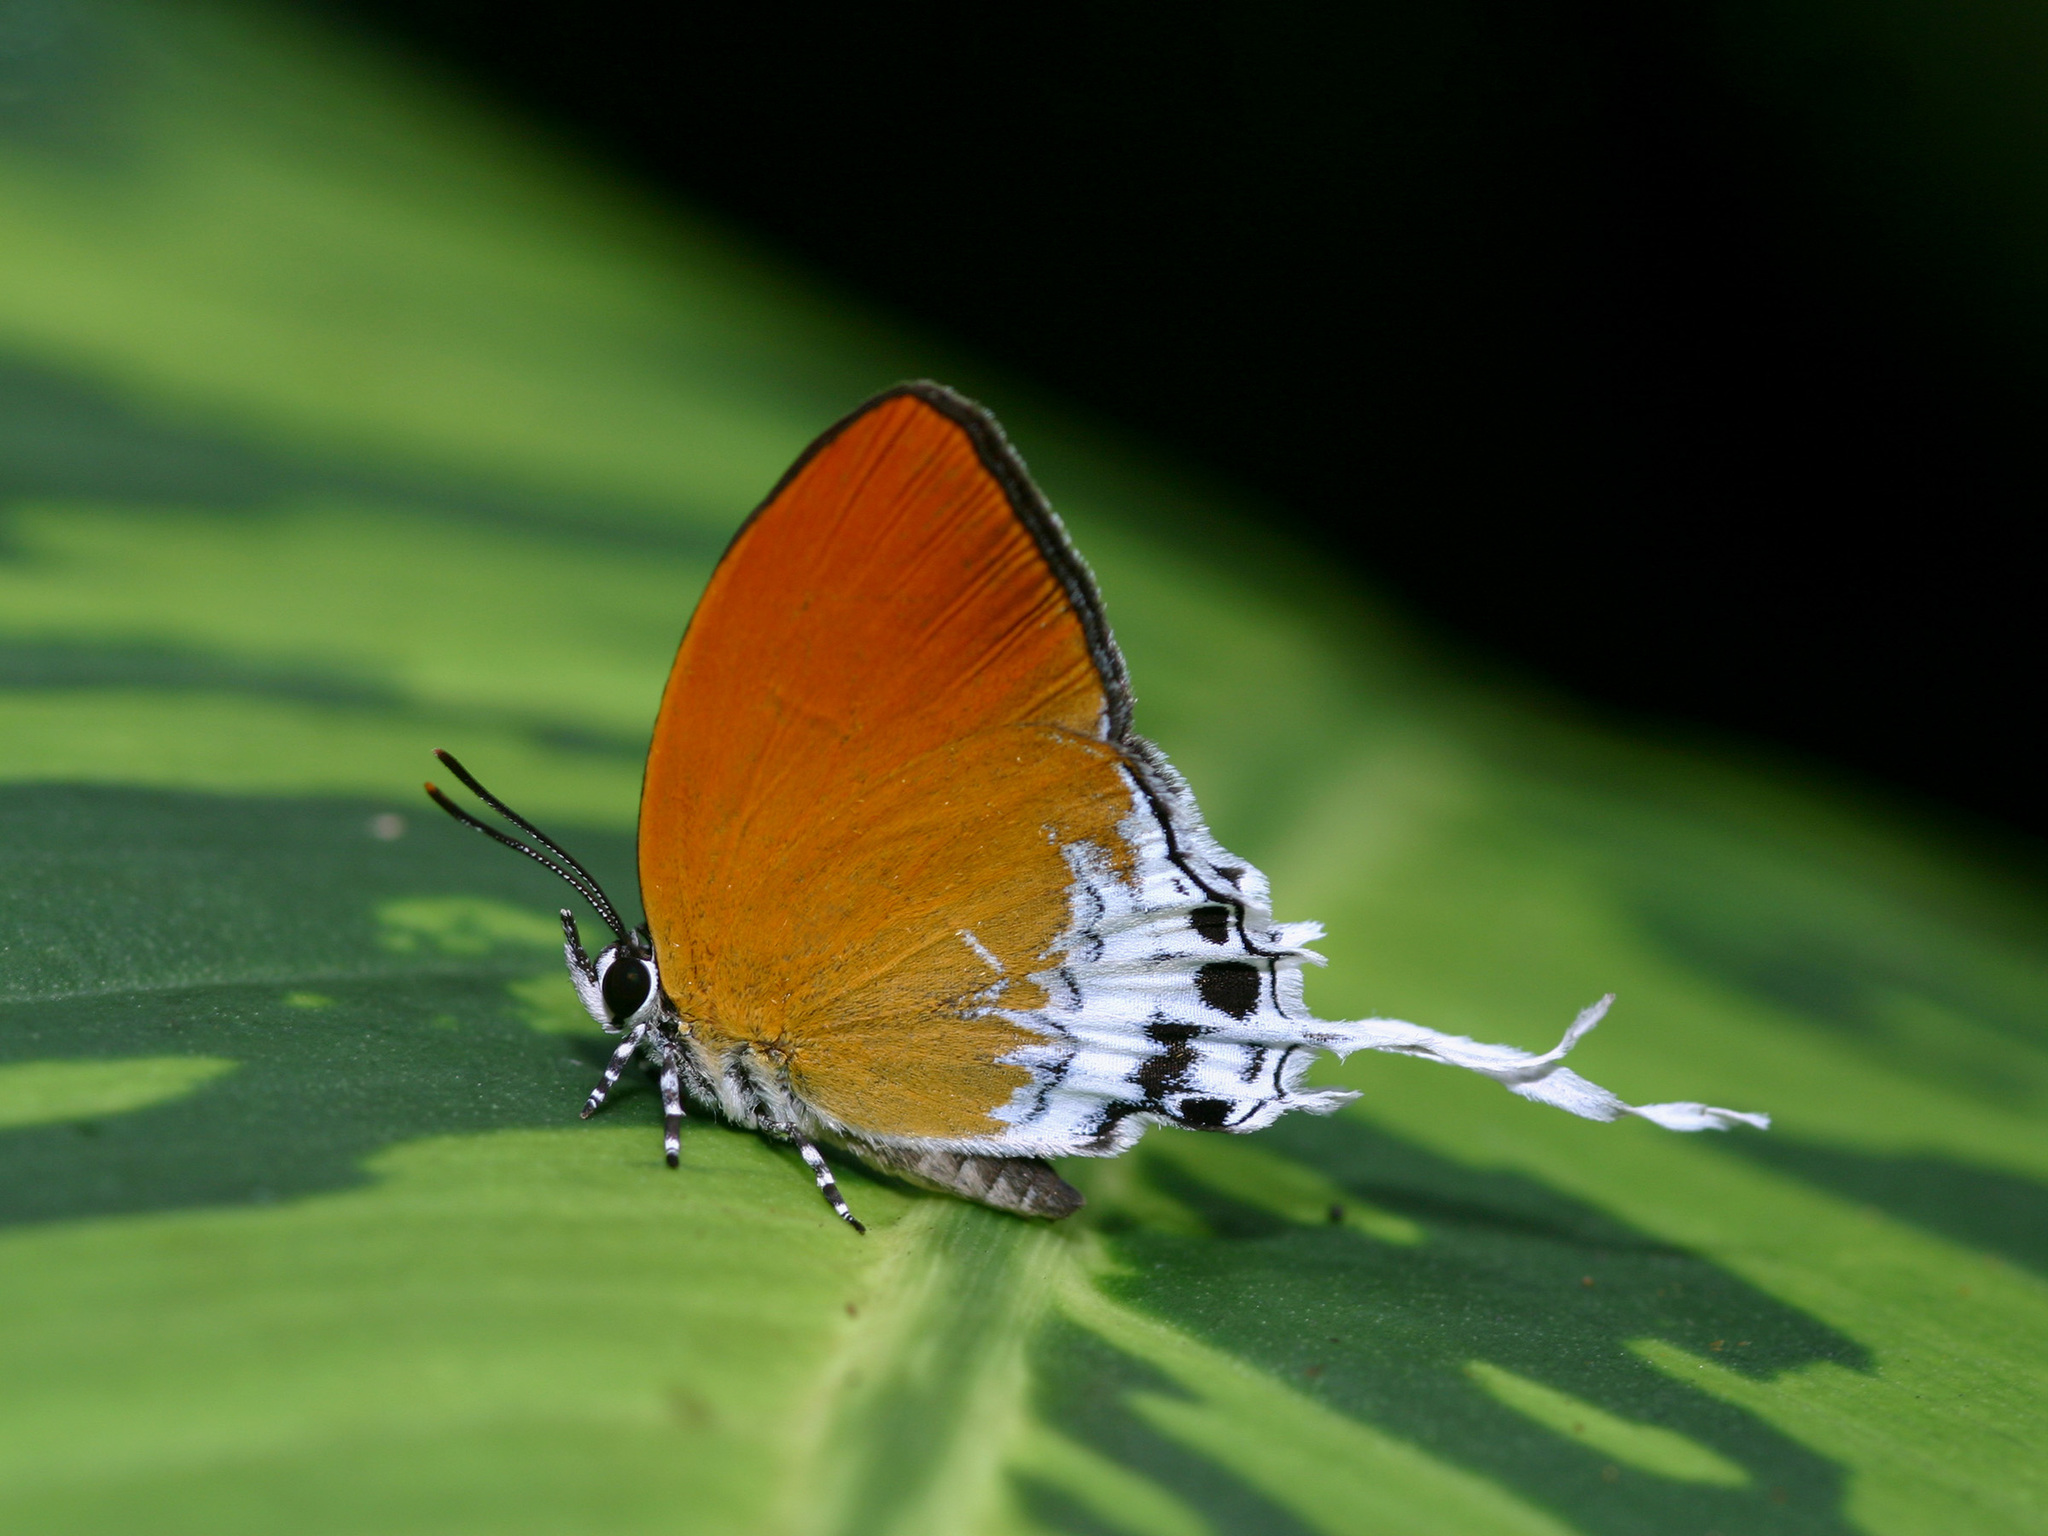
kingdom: Animalia
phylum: Arthropoda
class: Insecta
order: Lepidoptera
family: Lycaenidae
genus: Eooxylides
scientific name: Eooxylides tharis
